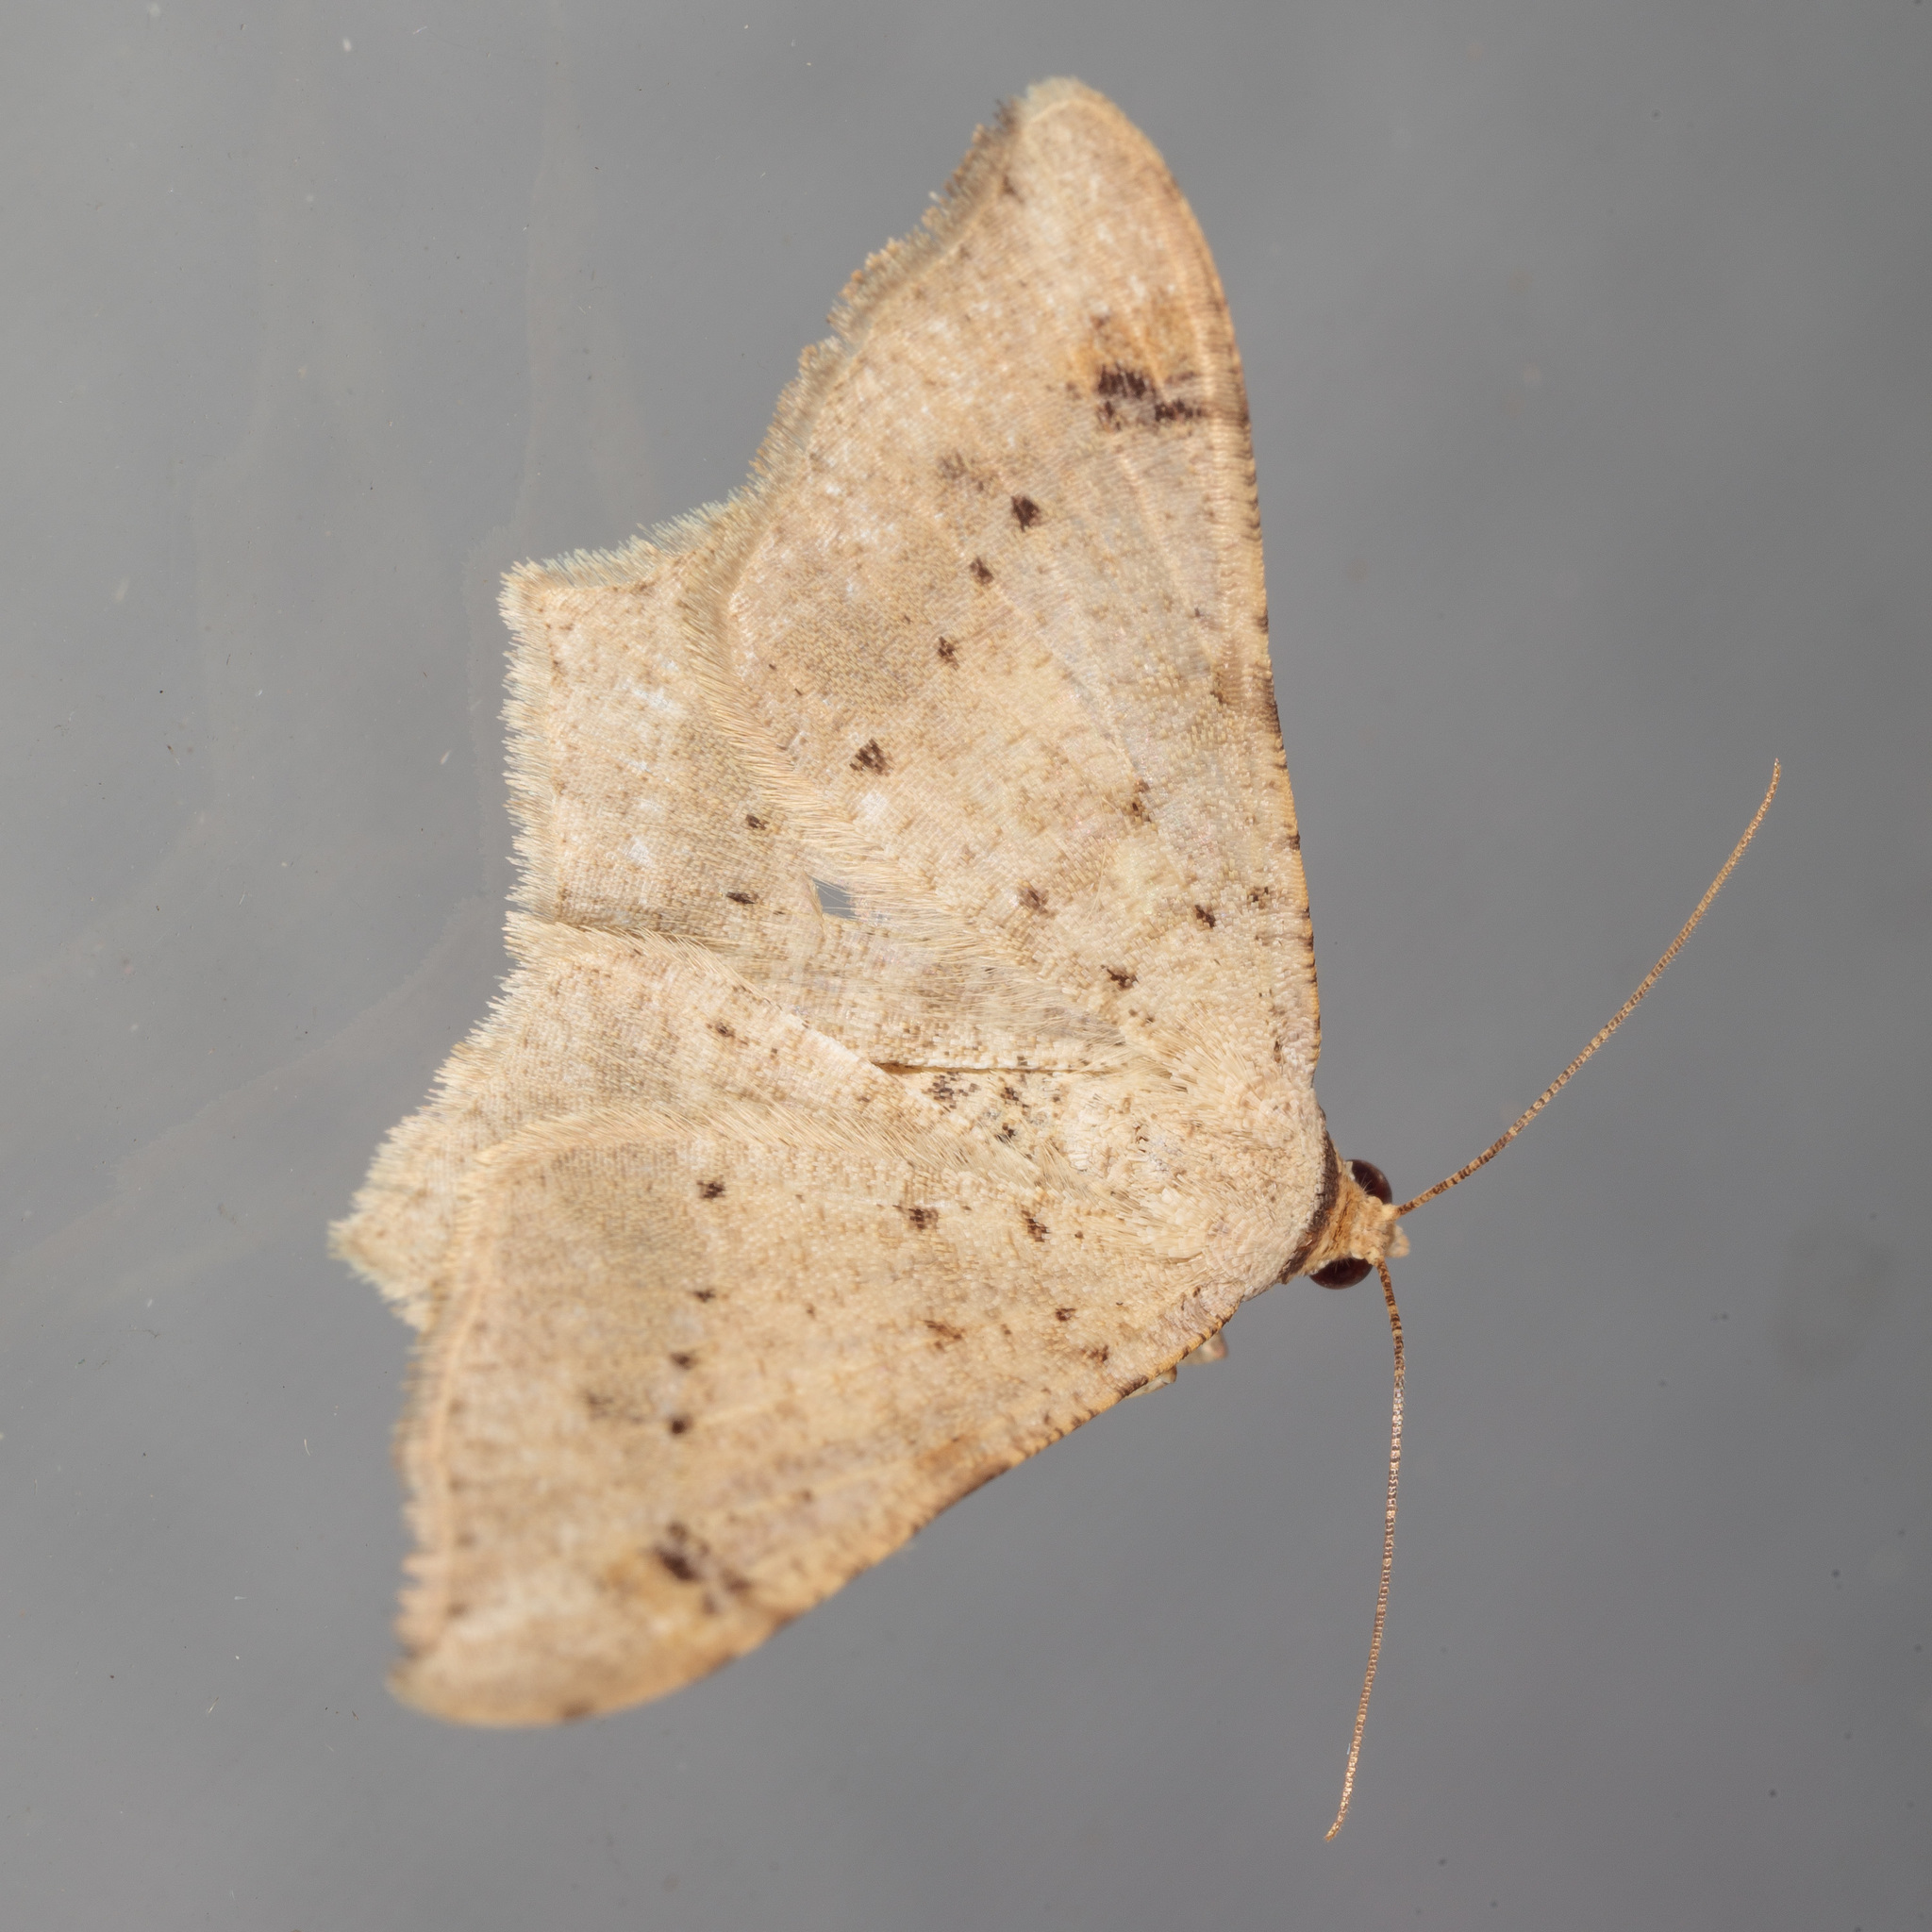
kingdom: Animalia
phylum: Arthropoda
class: Insecta
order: Lepidoptera
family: Geometridae
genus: Macaria
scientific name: Macaria abydata
